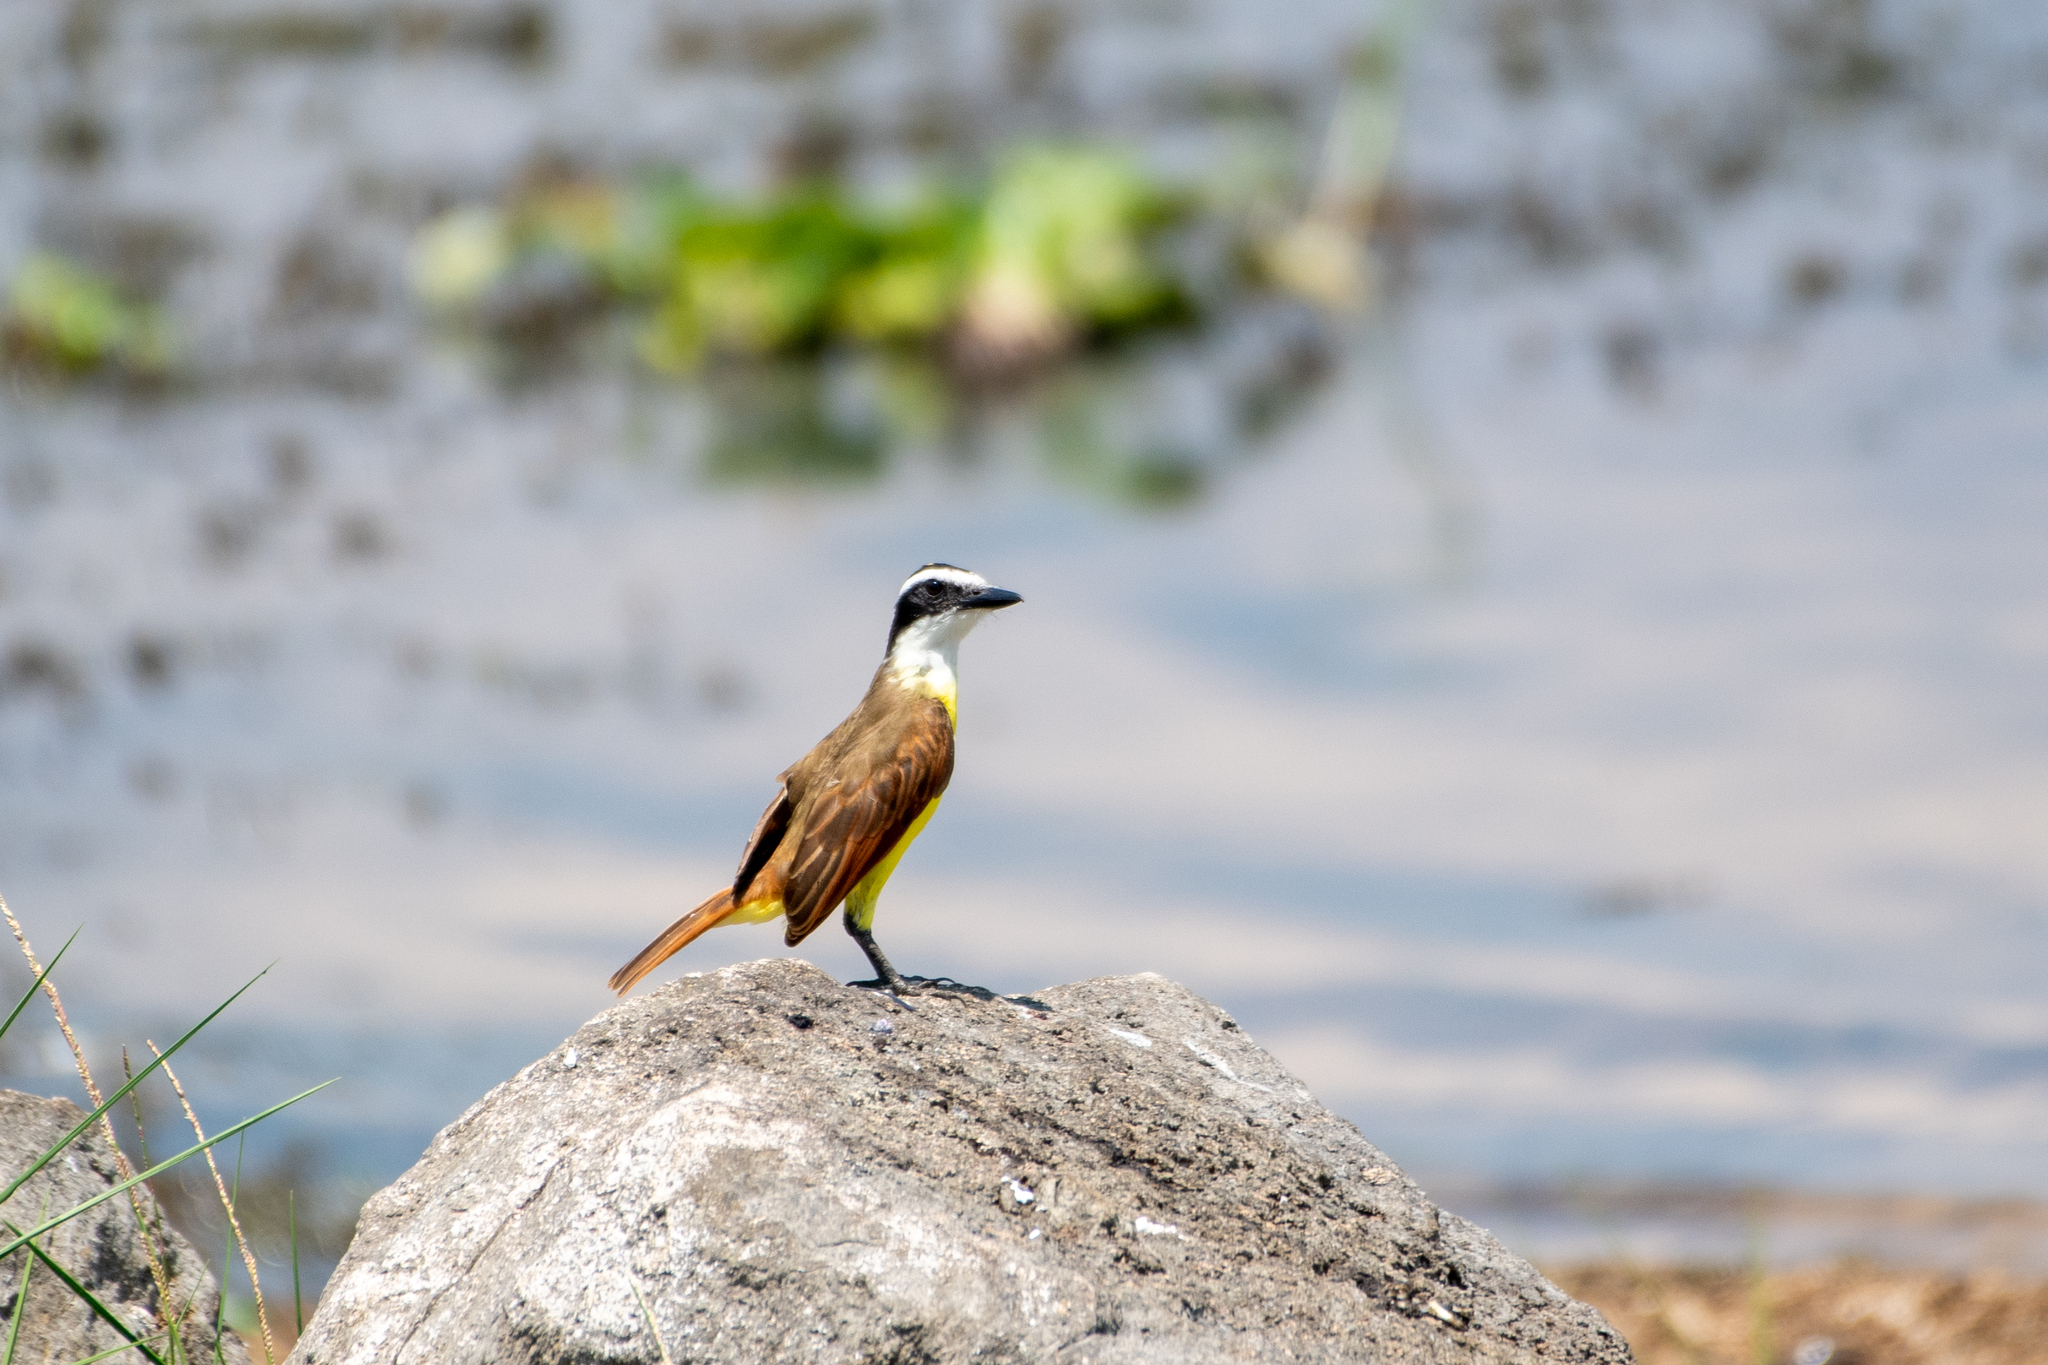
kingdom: Animalia
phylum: Chordata
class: Aves
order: Passeriformes
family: Tyrannidae
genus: Pitangus
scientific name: Pitangus sulphuratus
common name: Great kiskadee
